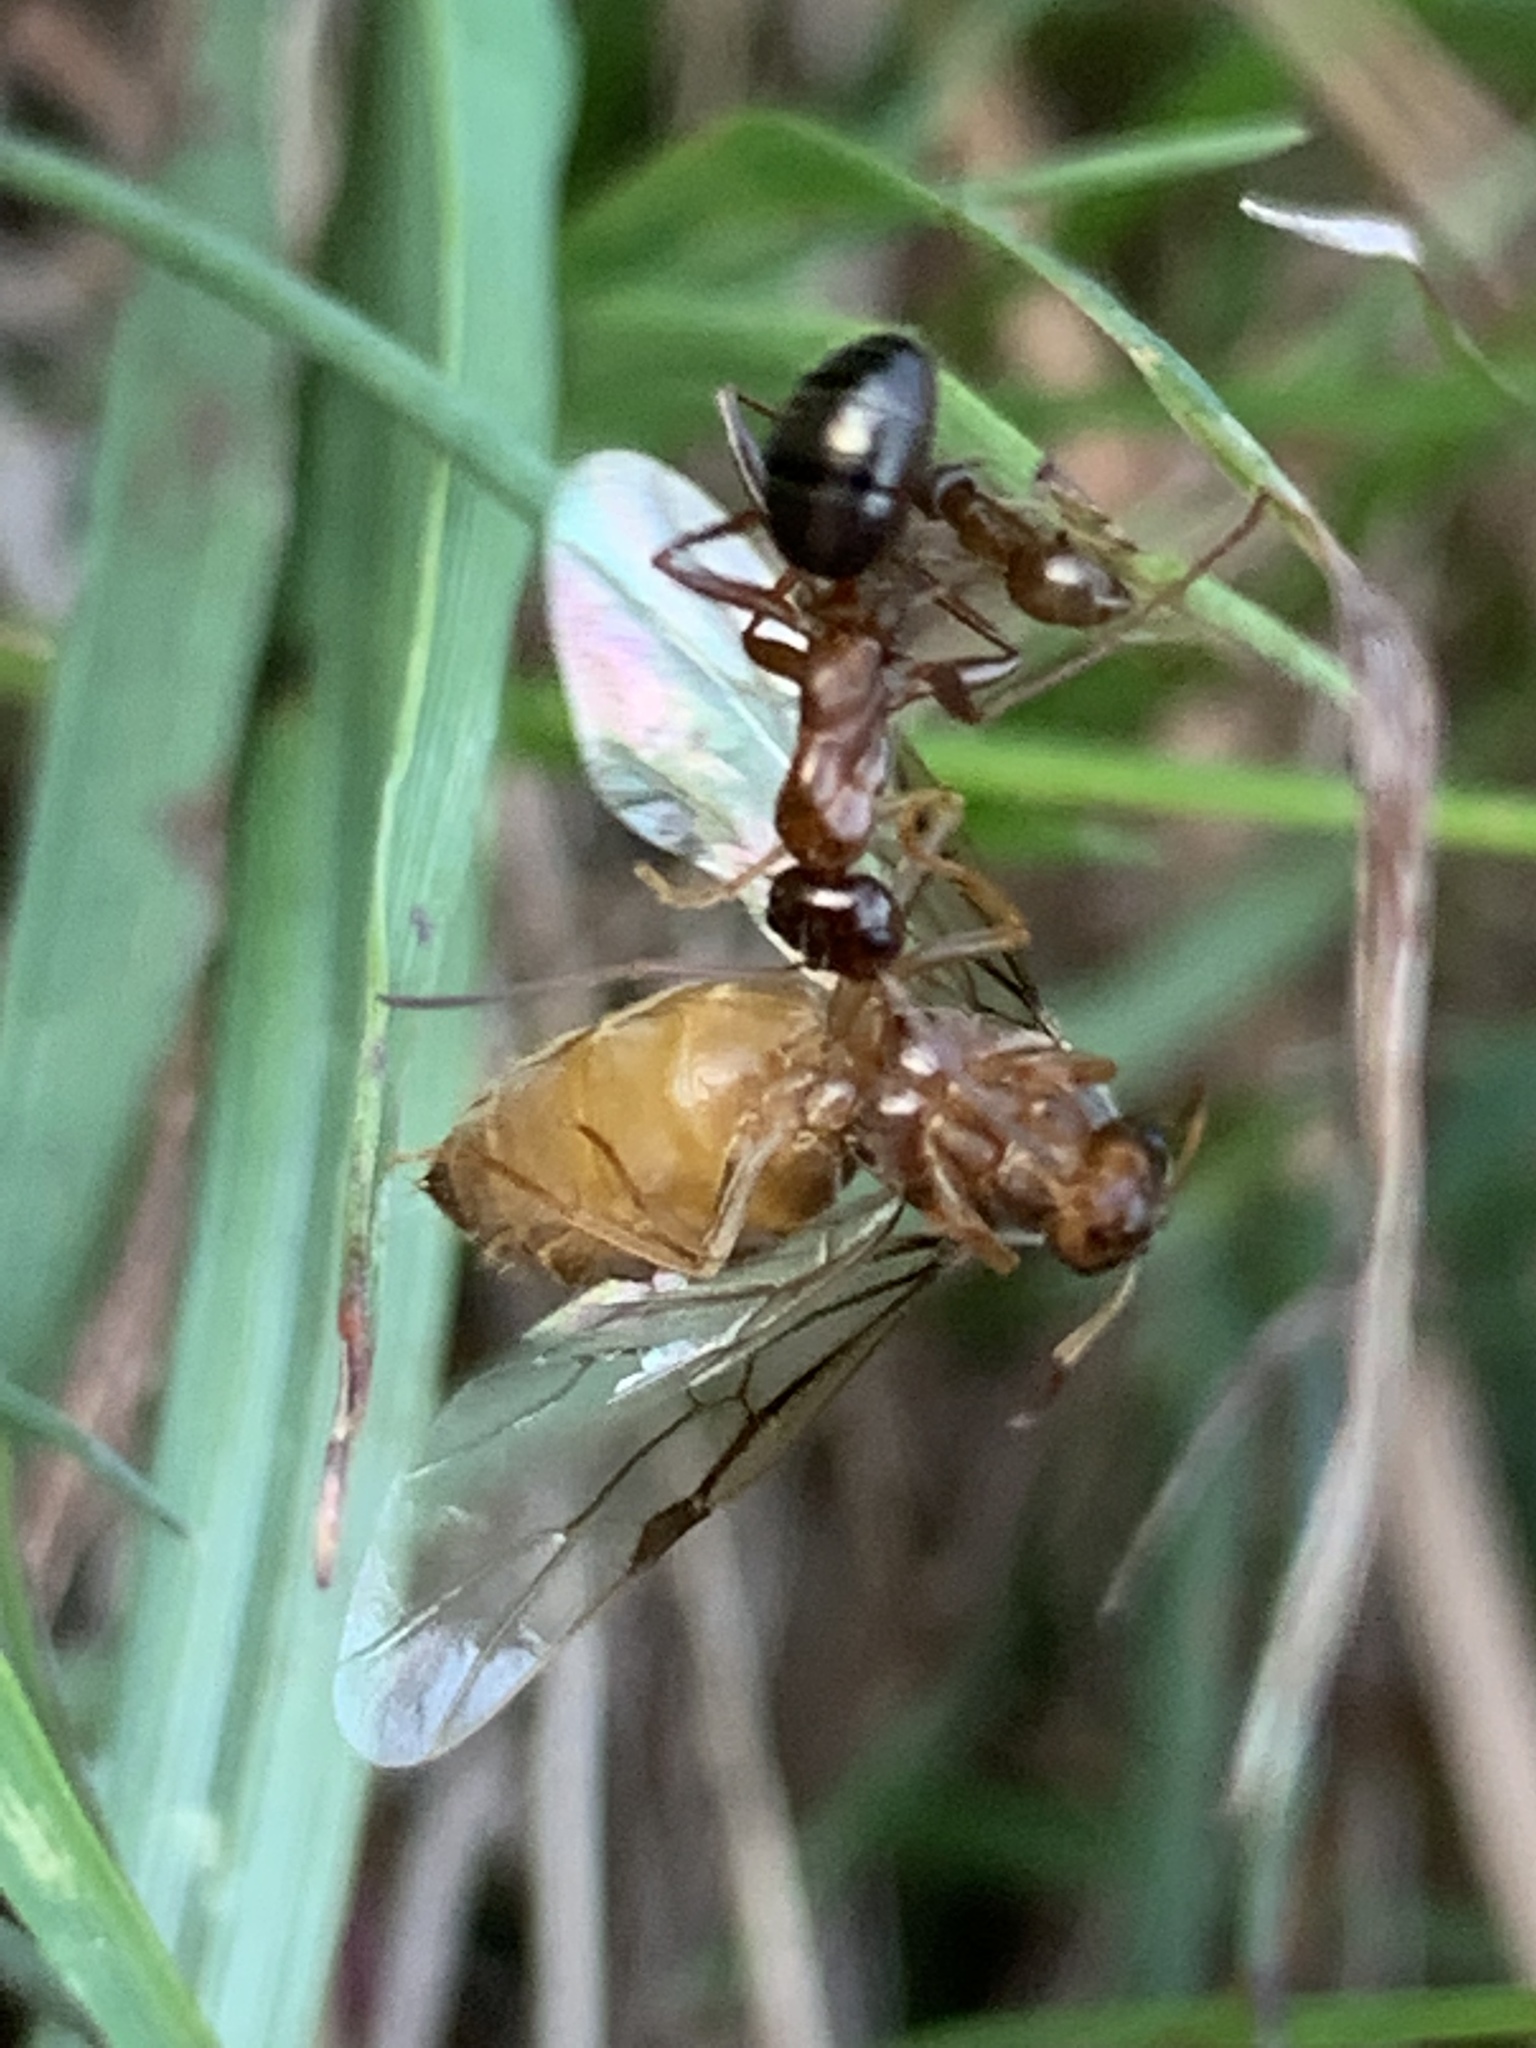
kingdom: Animalia
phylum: Arthropoda
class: Insecta
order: Hymenoptera
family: Formicidae
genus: Formica
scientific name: Formica
